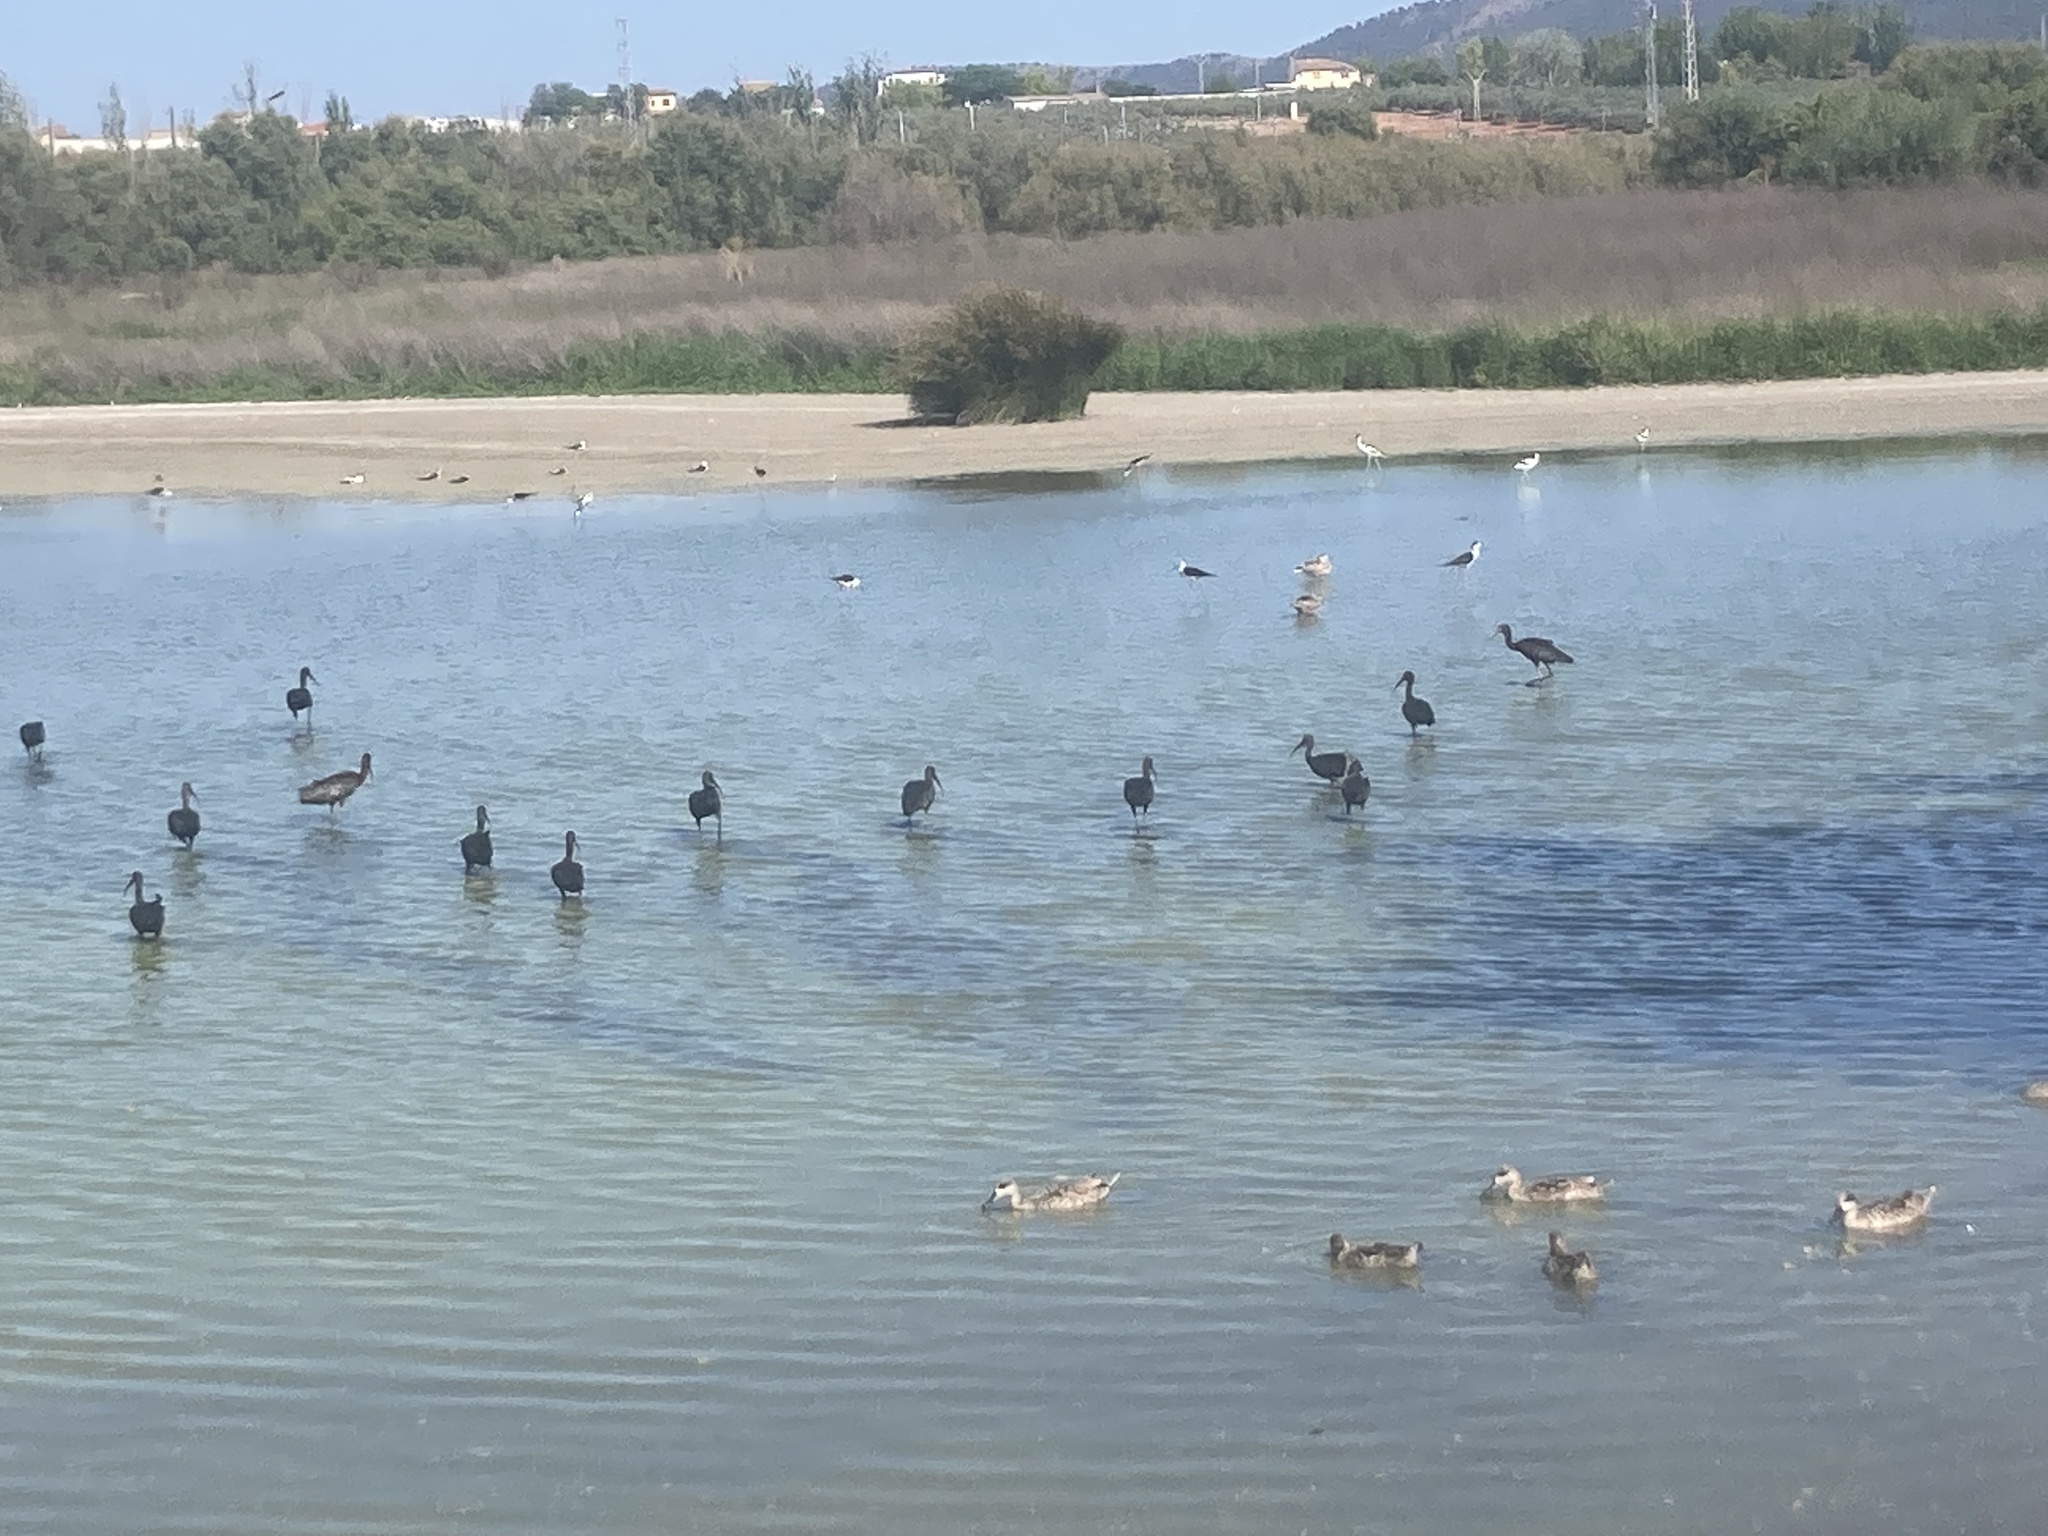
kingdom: Animalia
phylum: Chordata
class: Aves
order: Pelecaniformes
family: Threskiornithidae
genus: Plegadis
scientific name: Plegadis falcinellus
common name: Glossy ibis
